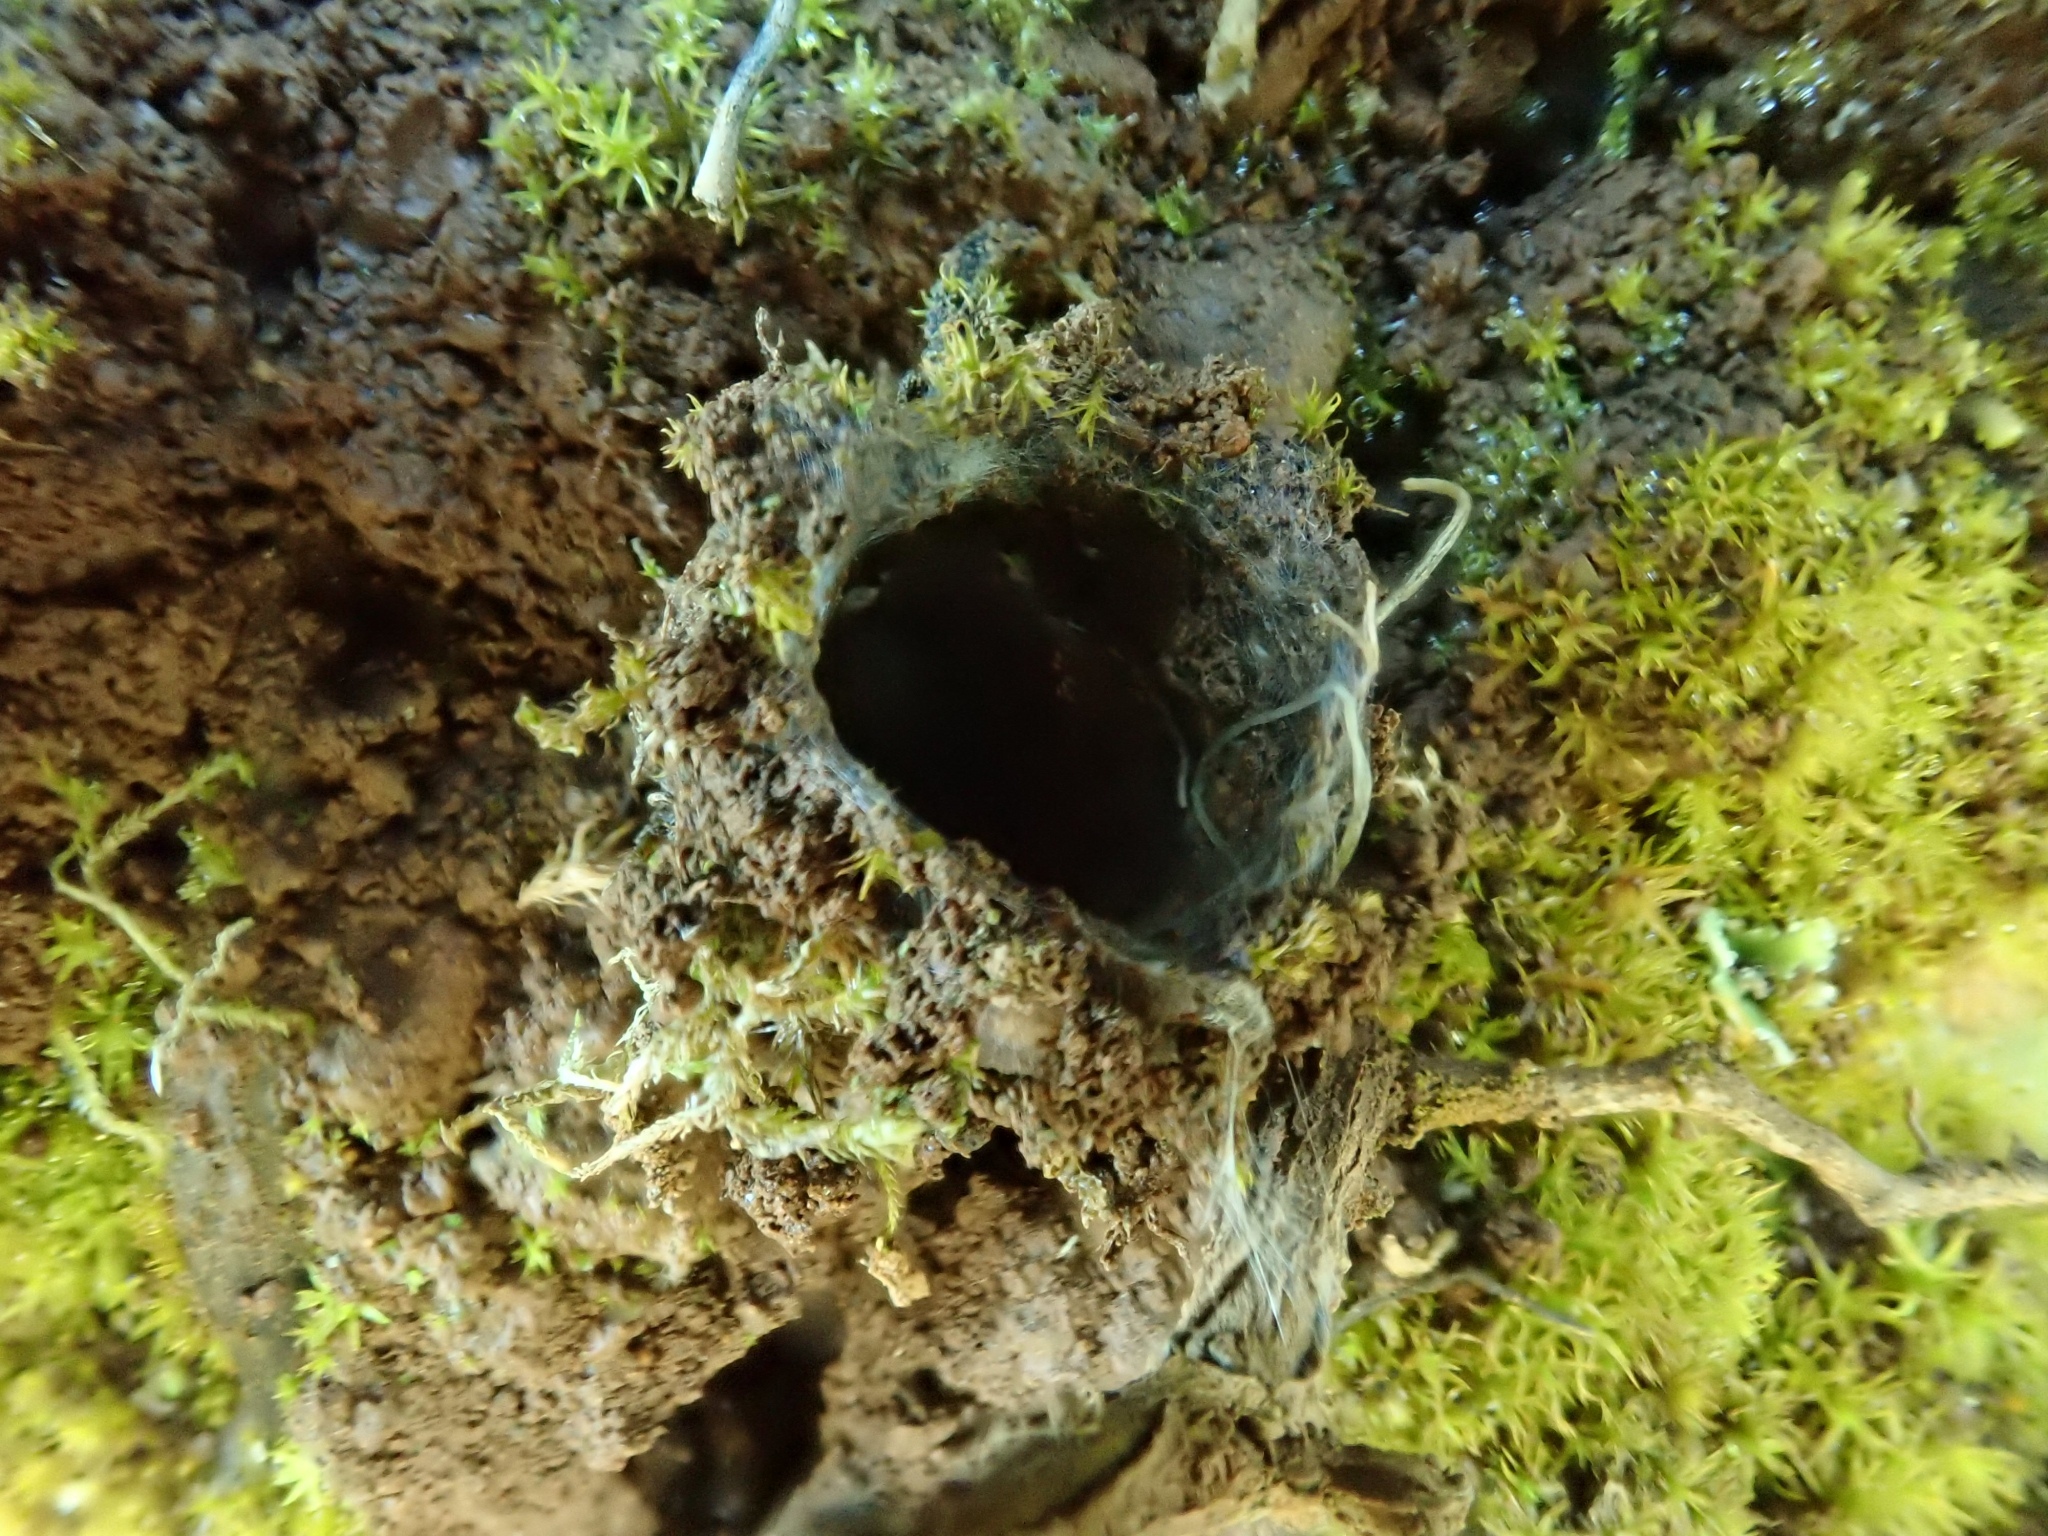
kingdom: Animalia
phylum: Arthropoda
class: Arachnida
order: Araneae
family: Antrodiaetidae
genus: Atypoides
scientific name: Atypoides riversi
